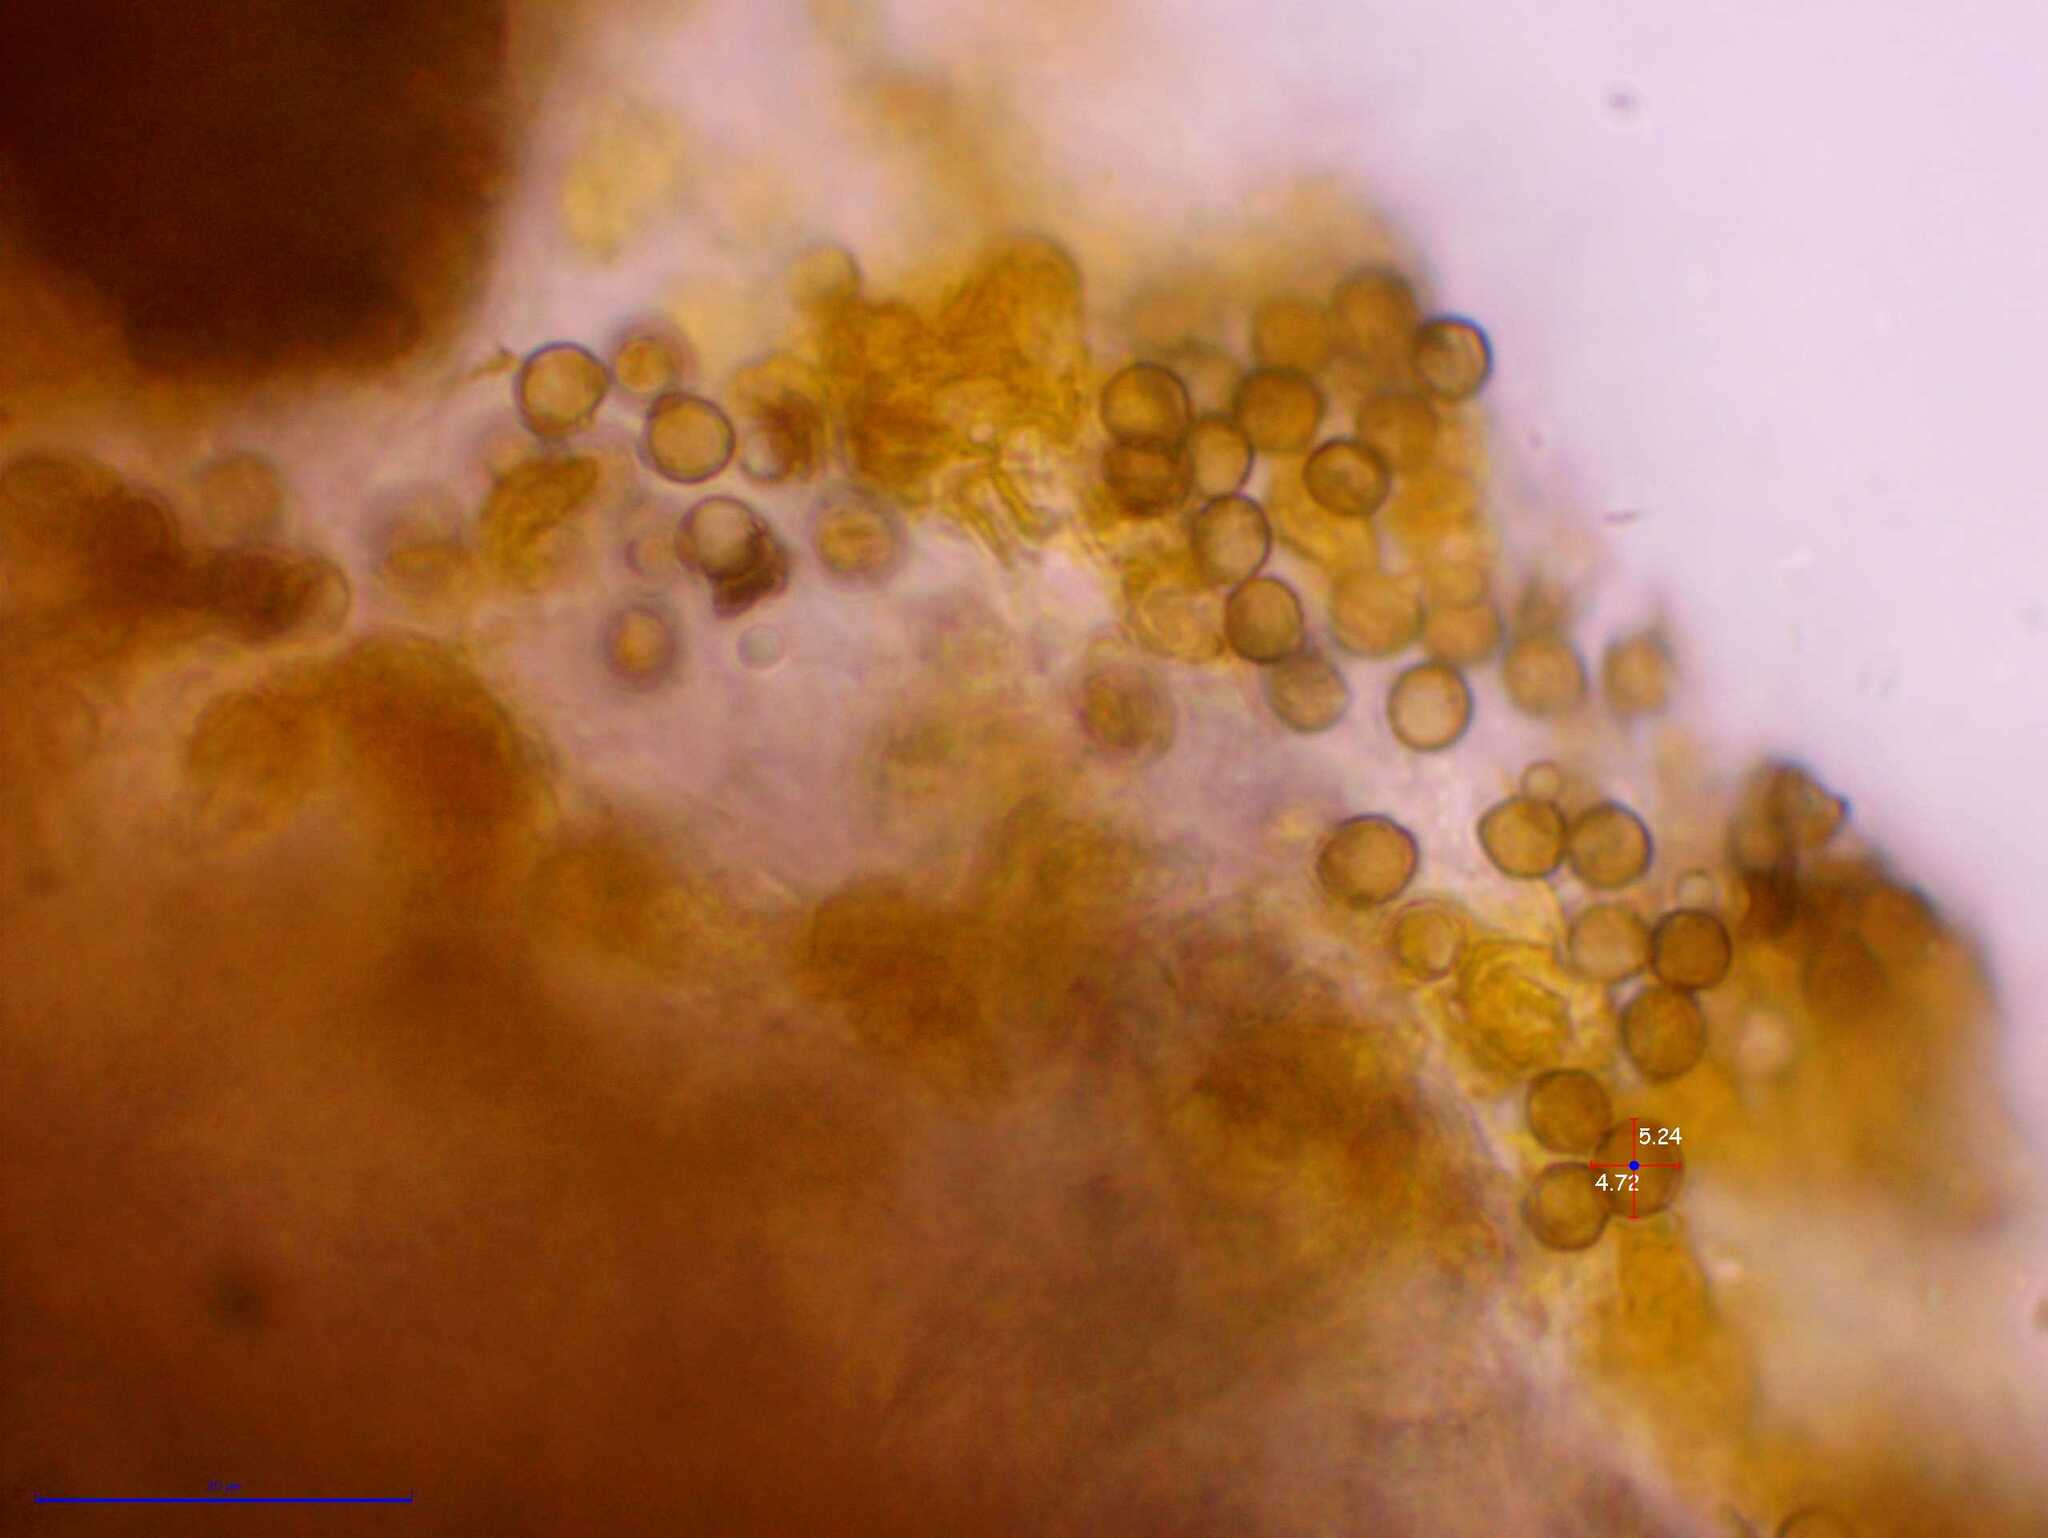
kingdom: Fungi
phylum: Ascomycota
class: Dothideomycetes
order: Mycosphaerellales
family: Teratosphaeriaceae
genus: Xanthoriicola
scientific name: Xanthoriicola physciae
